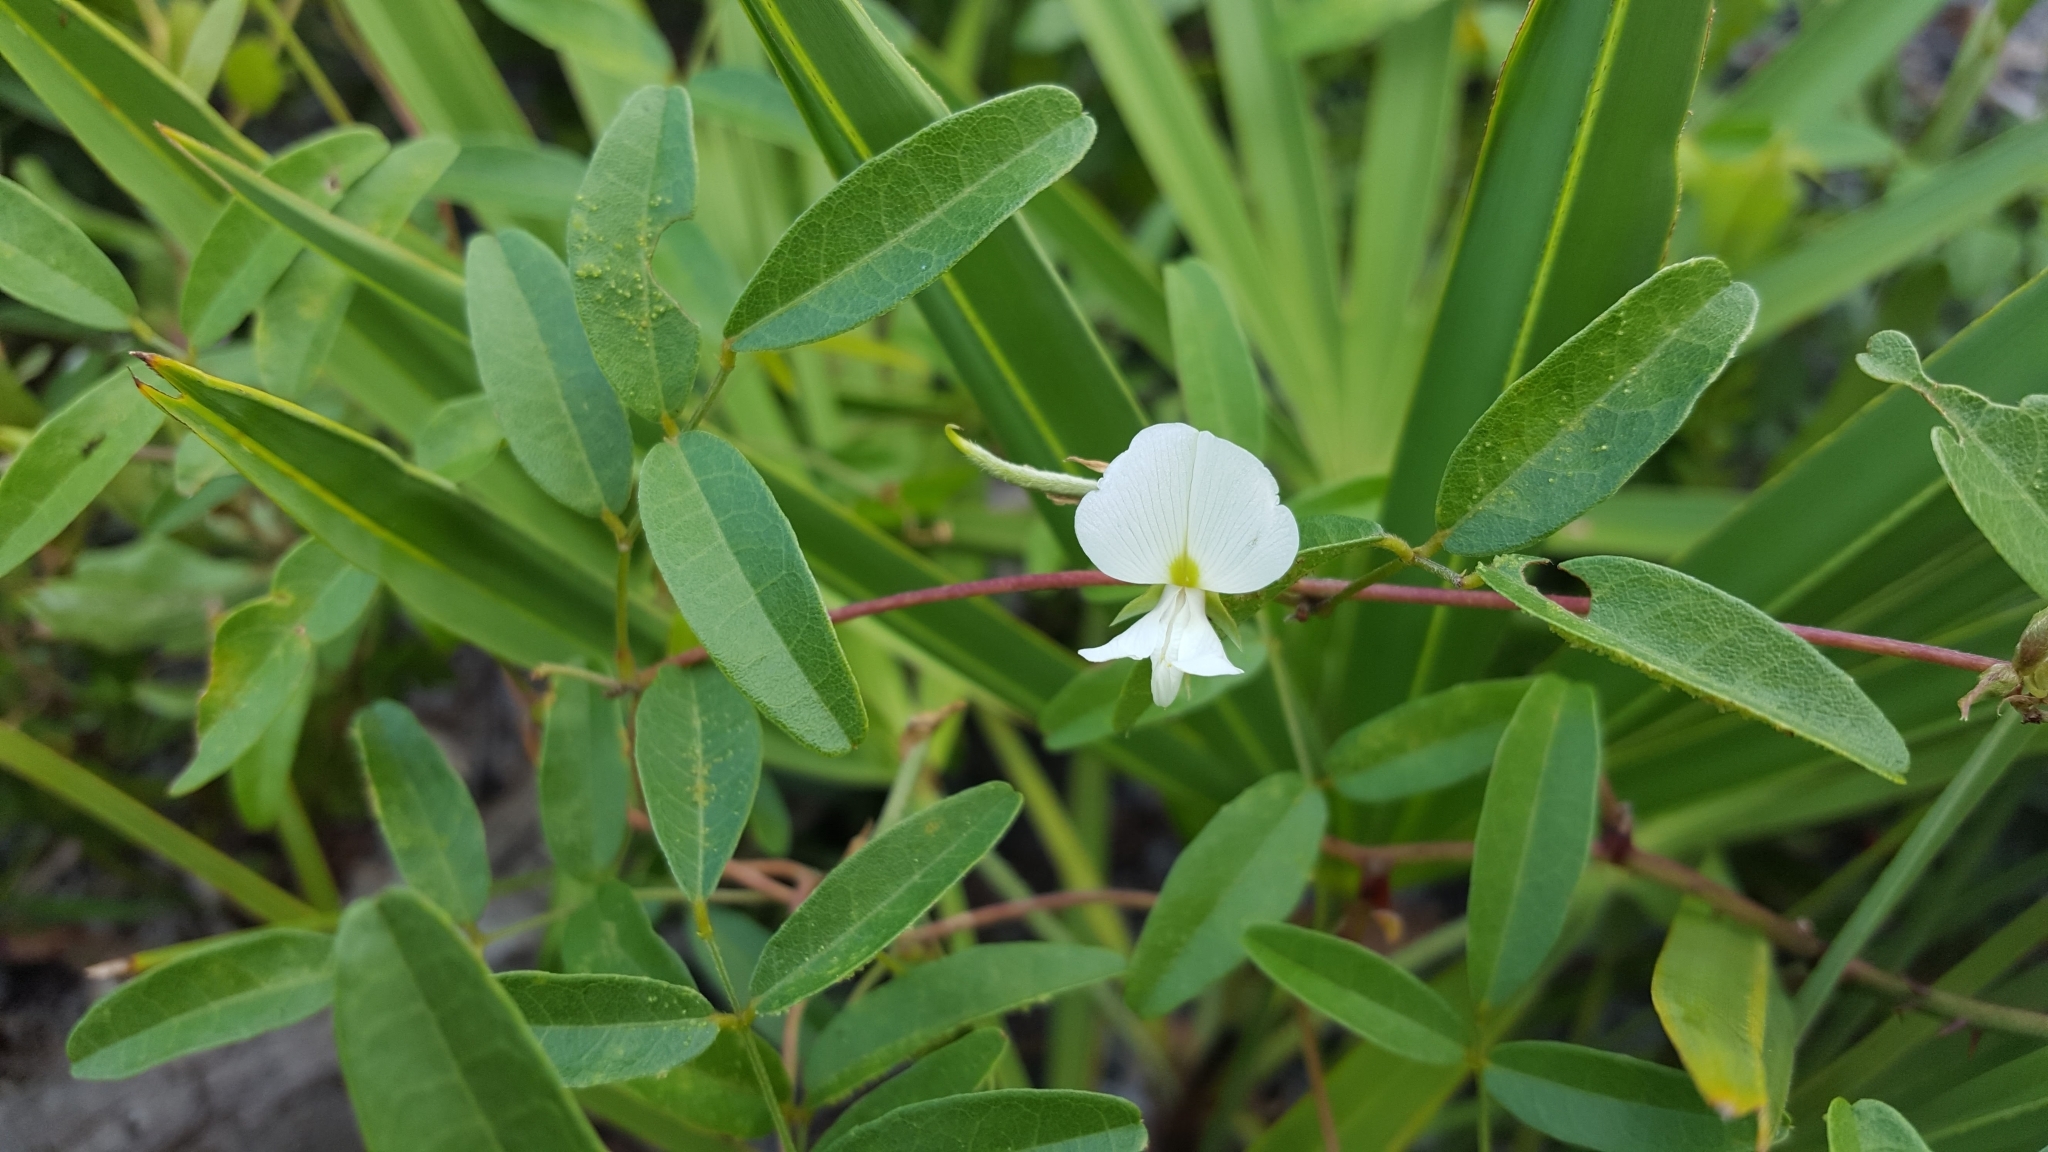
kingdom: Plantae
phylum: Tracheophyta
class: Magnoliopsida
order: Fabales
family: Fabaceae
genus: Galactia
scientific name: Galactia elliottii
